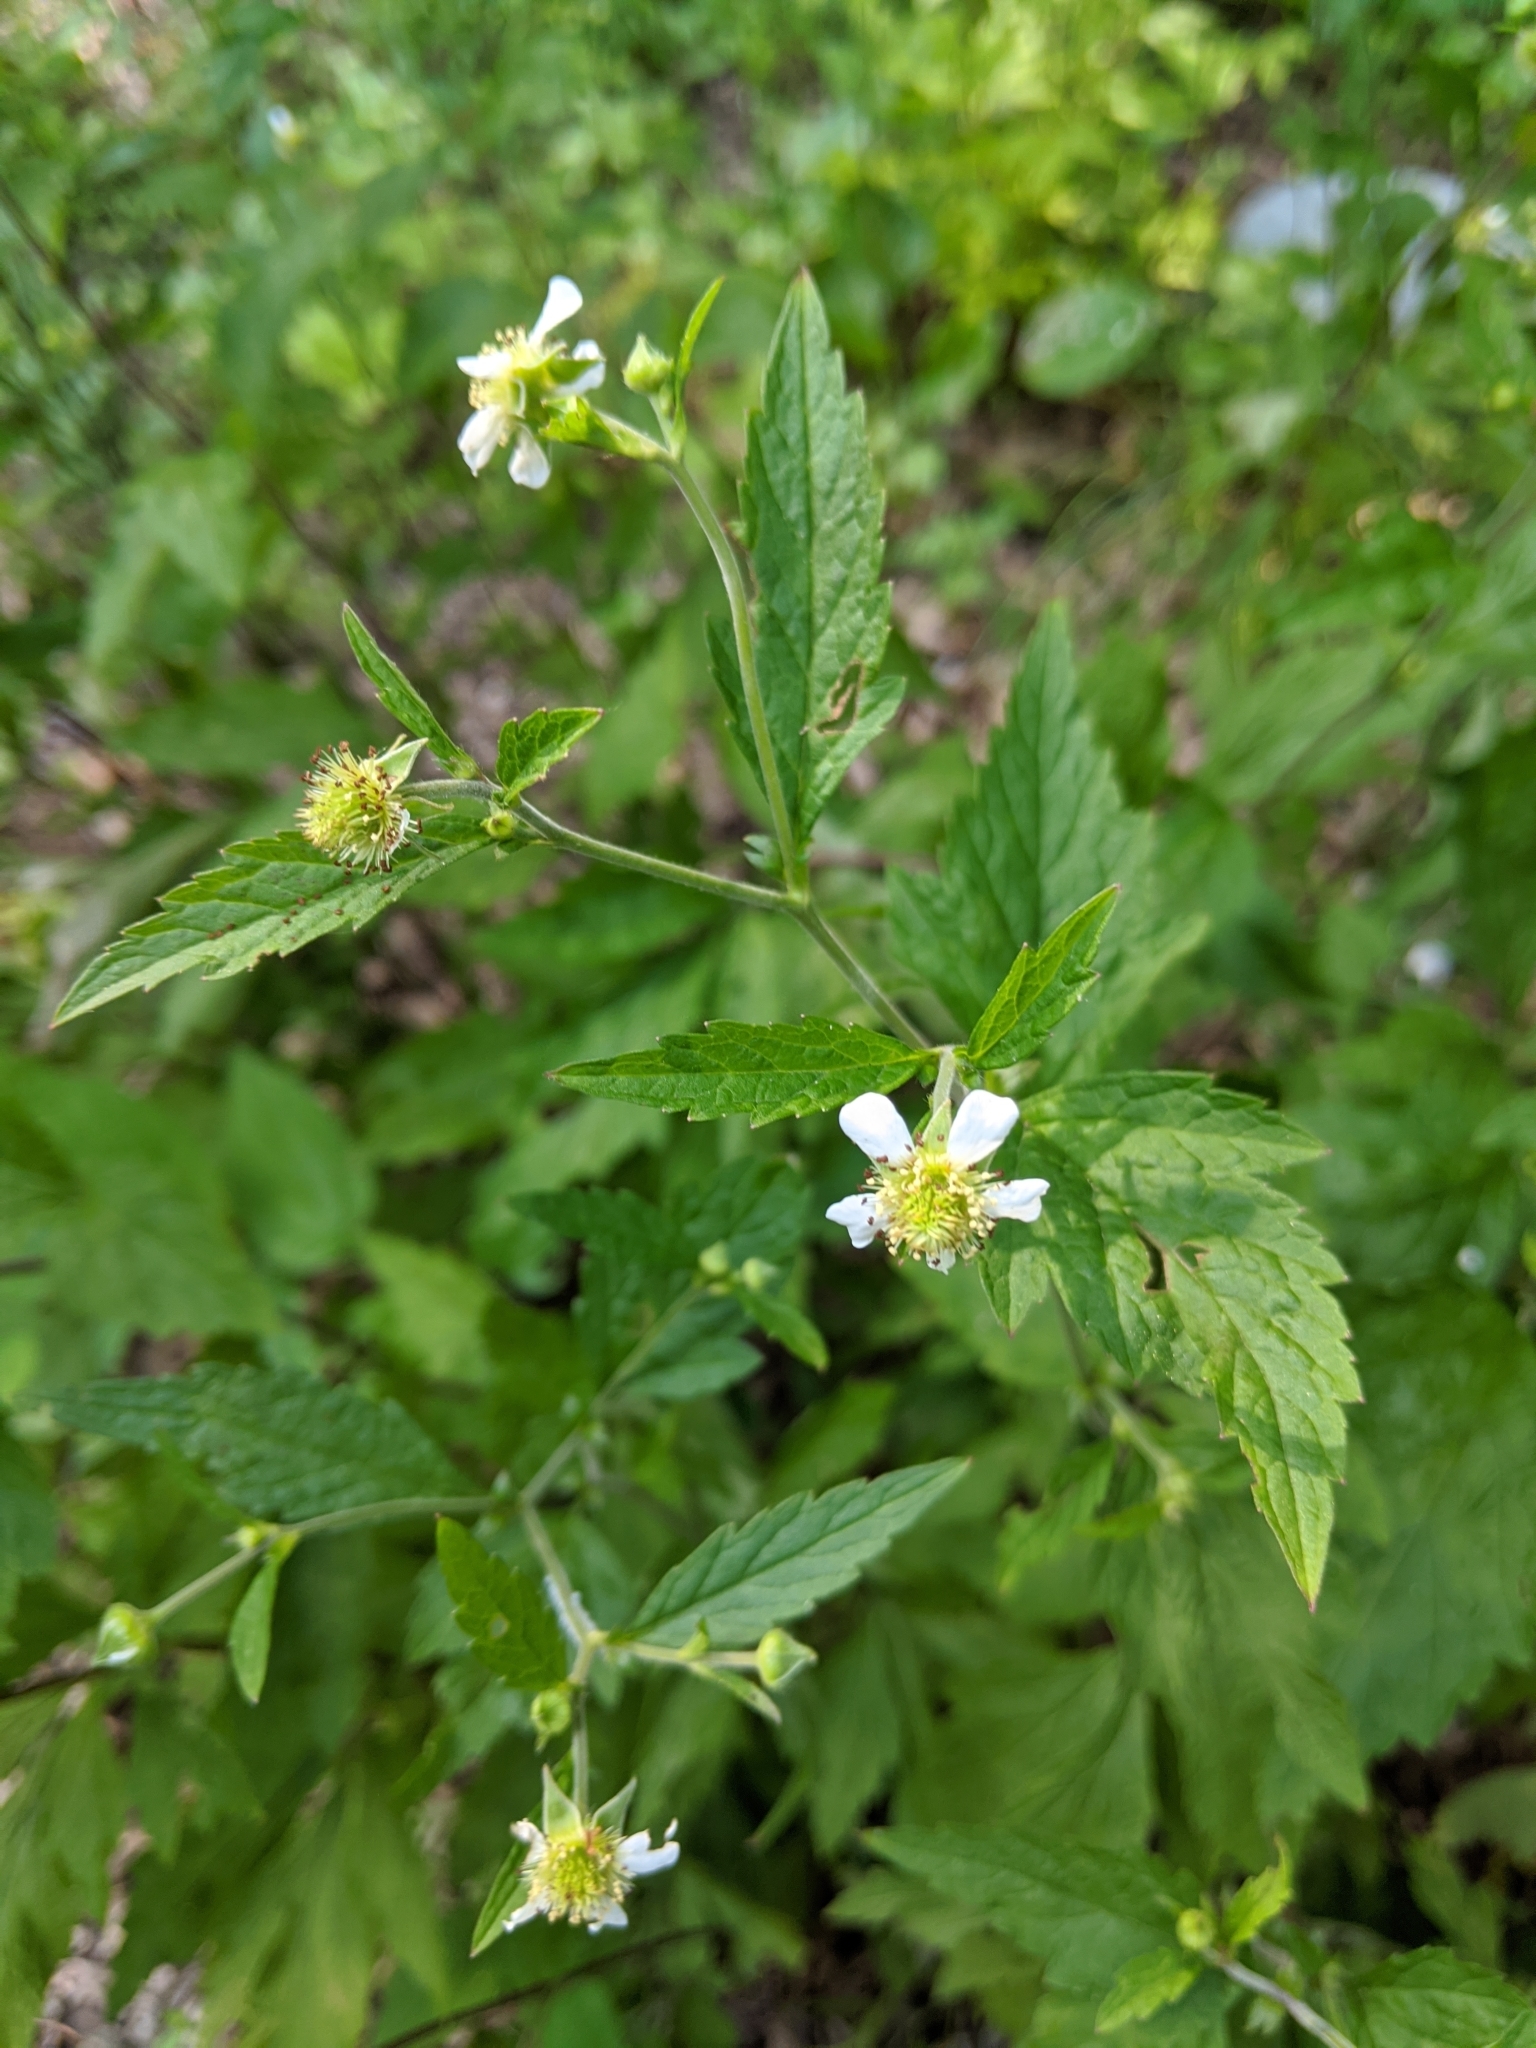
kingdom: Plantae
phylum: Tracheophyta
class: Magnoliopsida
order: Rosales
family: Rosaceae
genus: Geum
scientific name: Geum canadense
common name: White avens
